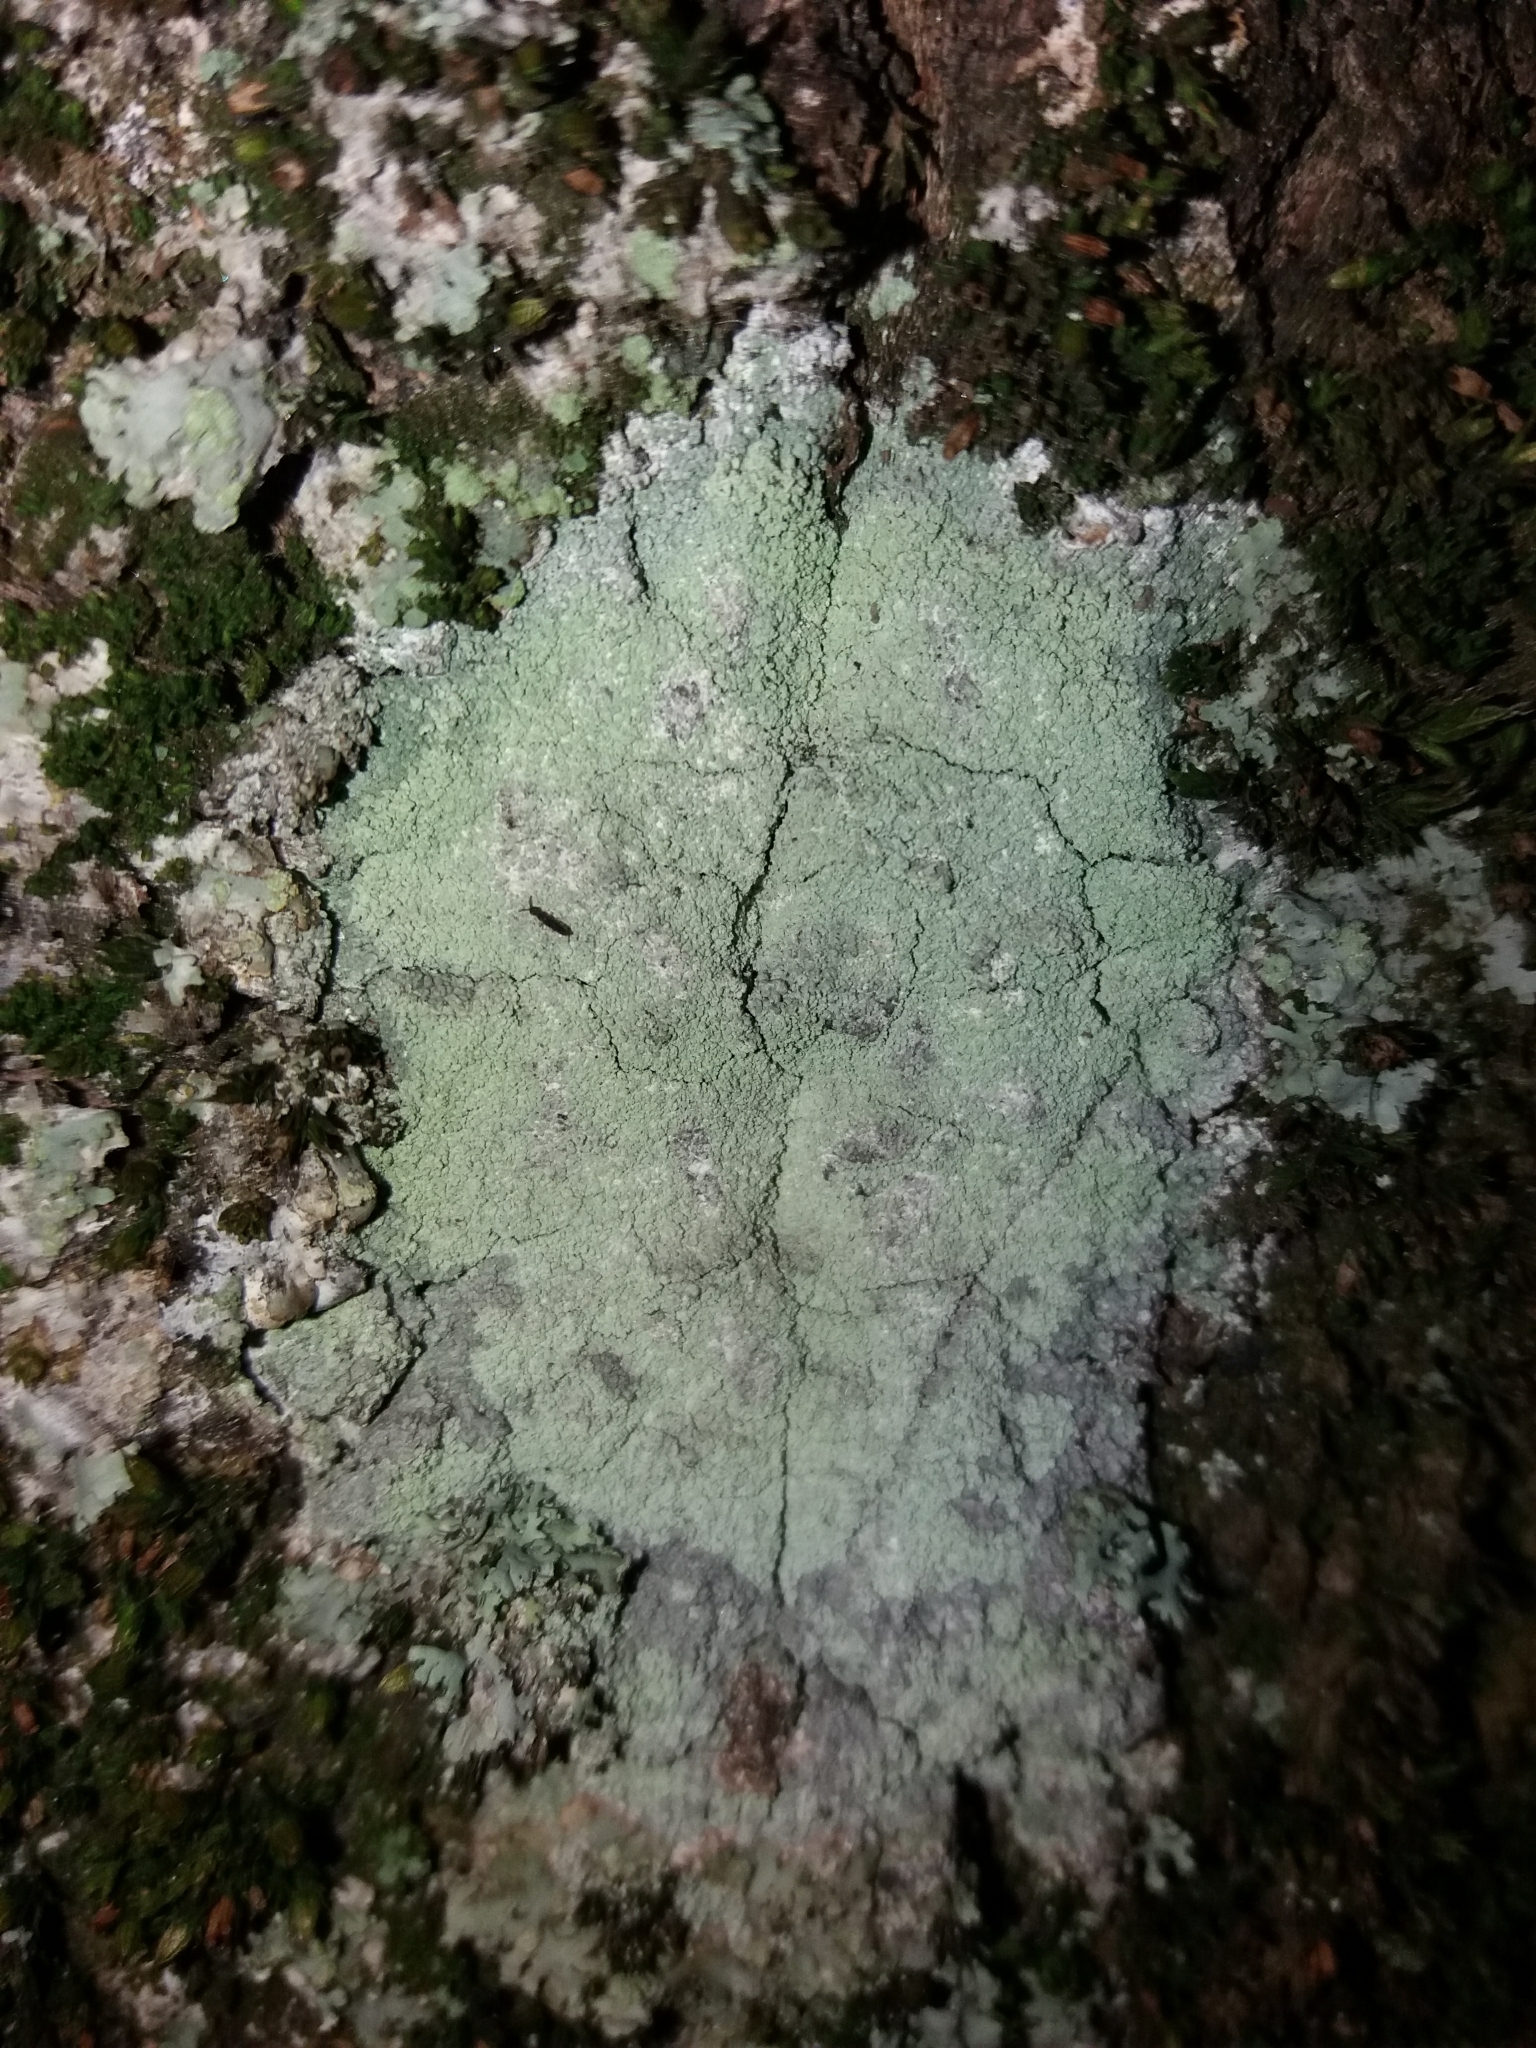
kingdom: Fungi
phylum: Ascomycota
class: Lecanoromycetes
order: Ostropales
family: Phlyctidaceae
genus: Phlyctis
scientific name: Phlyctis argena
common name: Whitewash lichen
